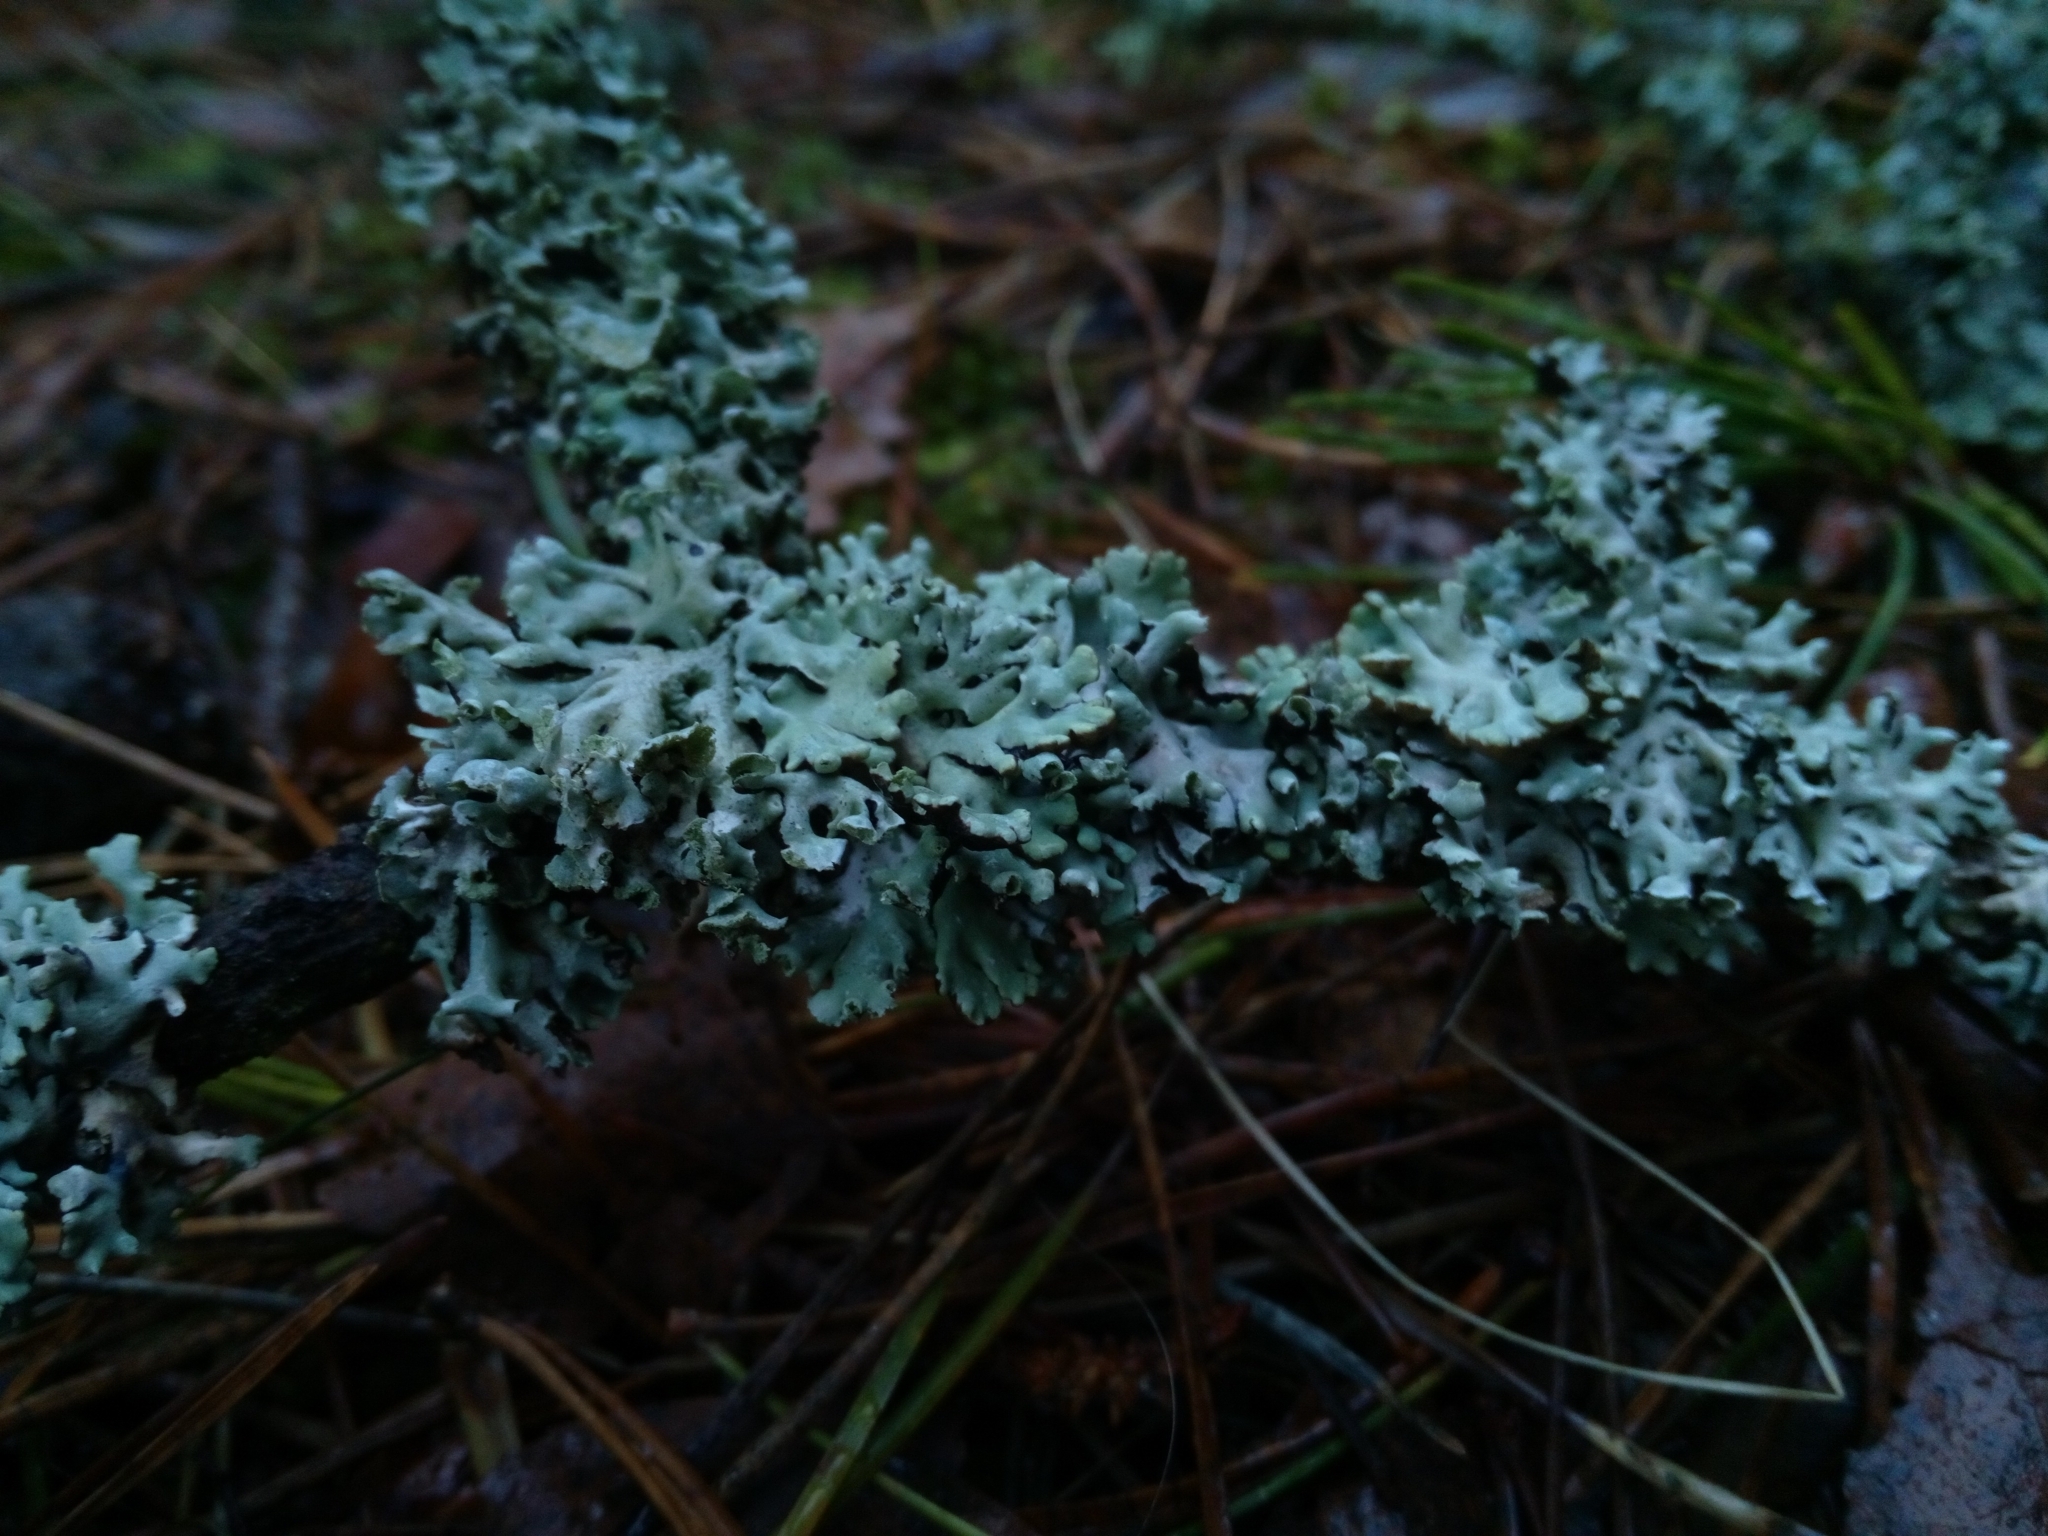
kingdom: Fungi
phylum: Ascomycota
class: Lecanoromycetes
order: Lecanorales
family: Parmeliaceae
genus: Hypogymnia
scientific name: Hypogymnia physodes
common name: Dark crottle
